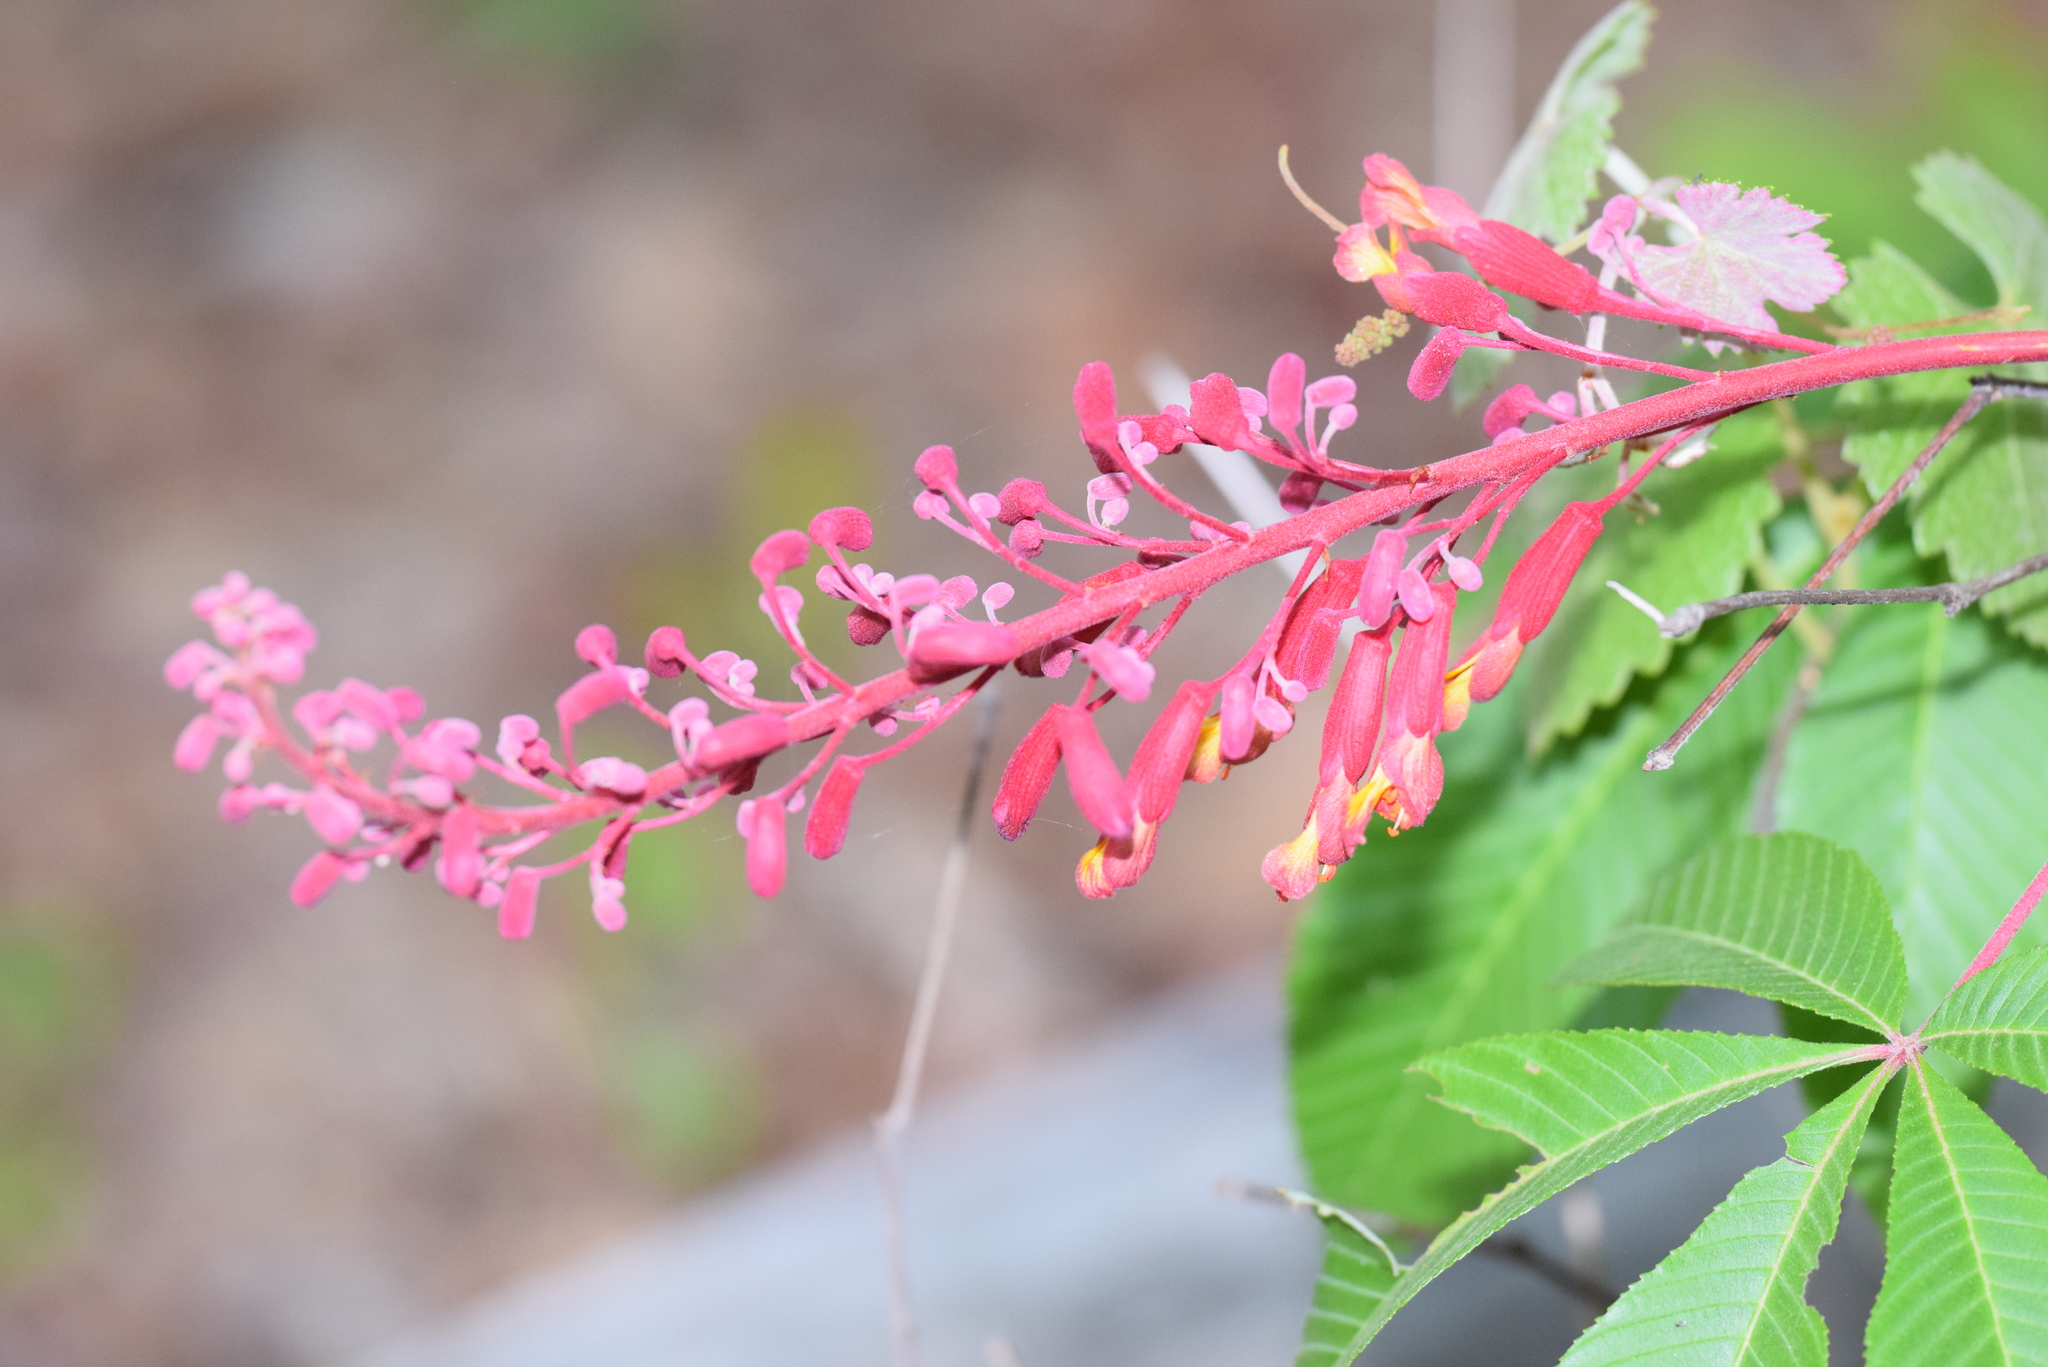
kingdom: Plantae
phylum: Tracheophyta
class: Magnoliopsida
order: Sapindales
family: Sapindaceae
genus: Aesculus
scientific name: Aesculus pavia
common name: Red buckeye
